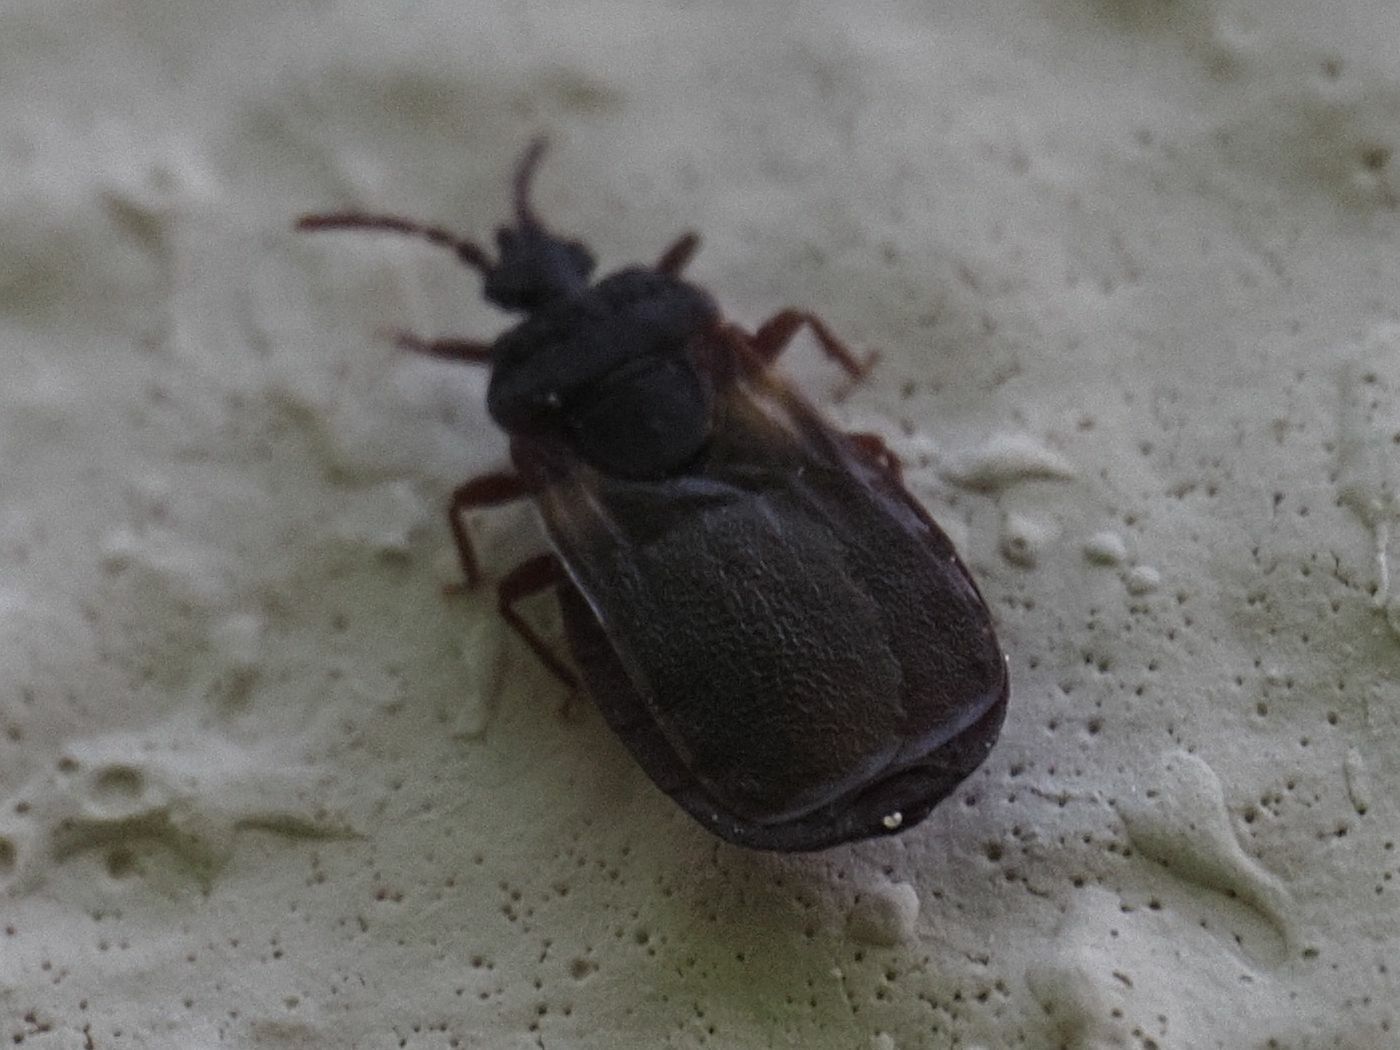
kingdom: Animalia
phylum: Arthropoda
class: Insecta
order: Hemiptera
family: Aradidae
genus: Aneurus
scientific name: Aneurus avenius
